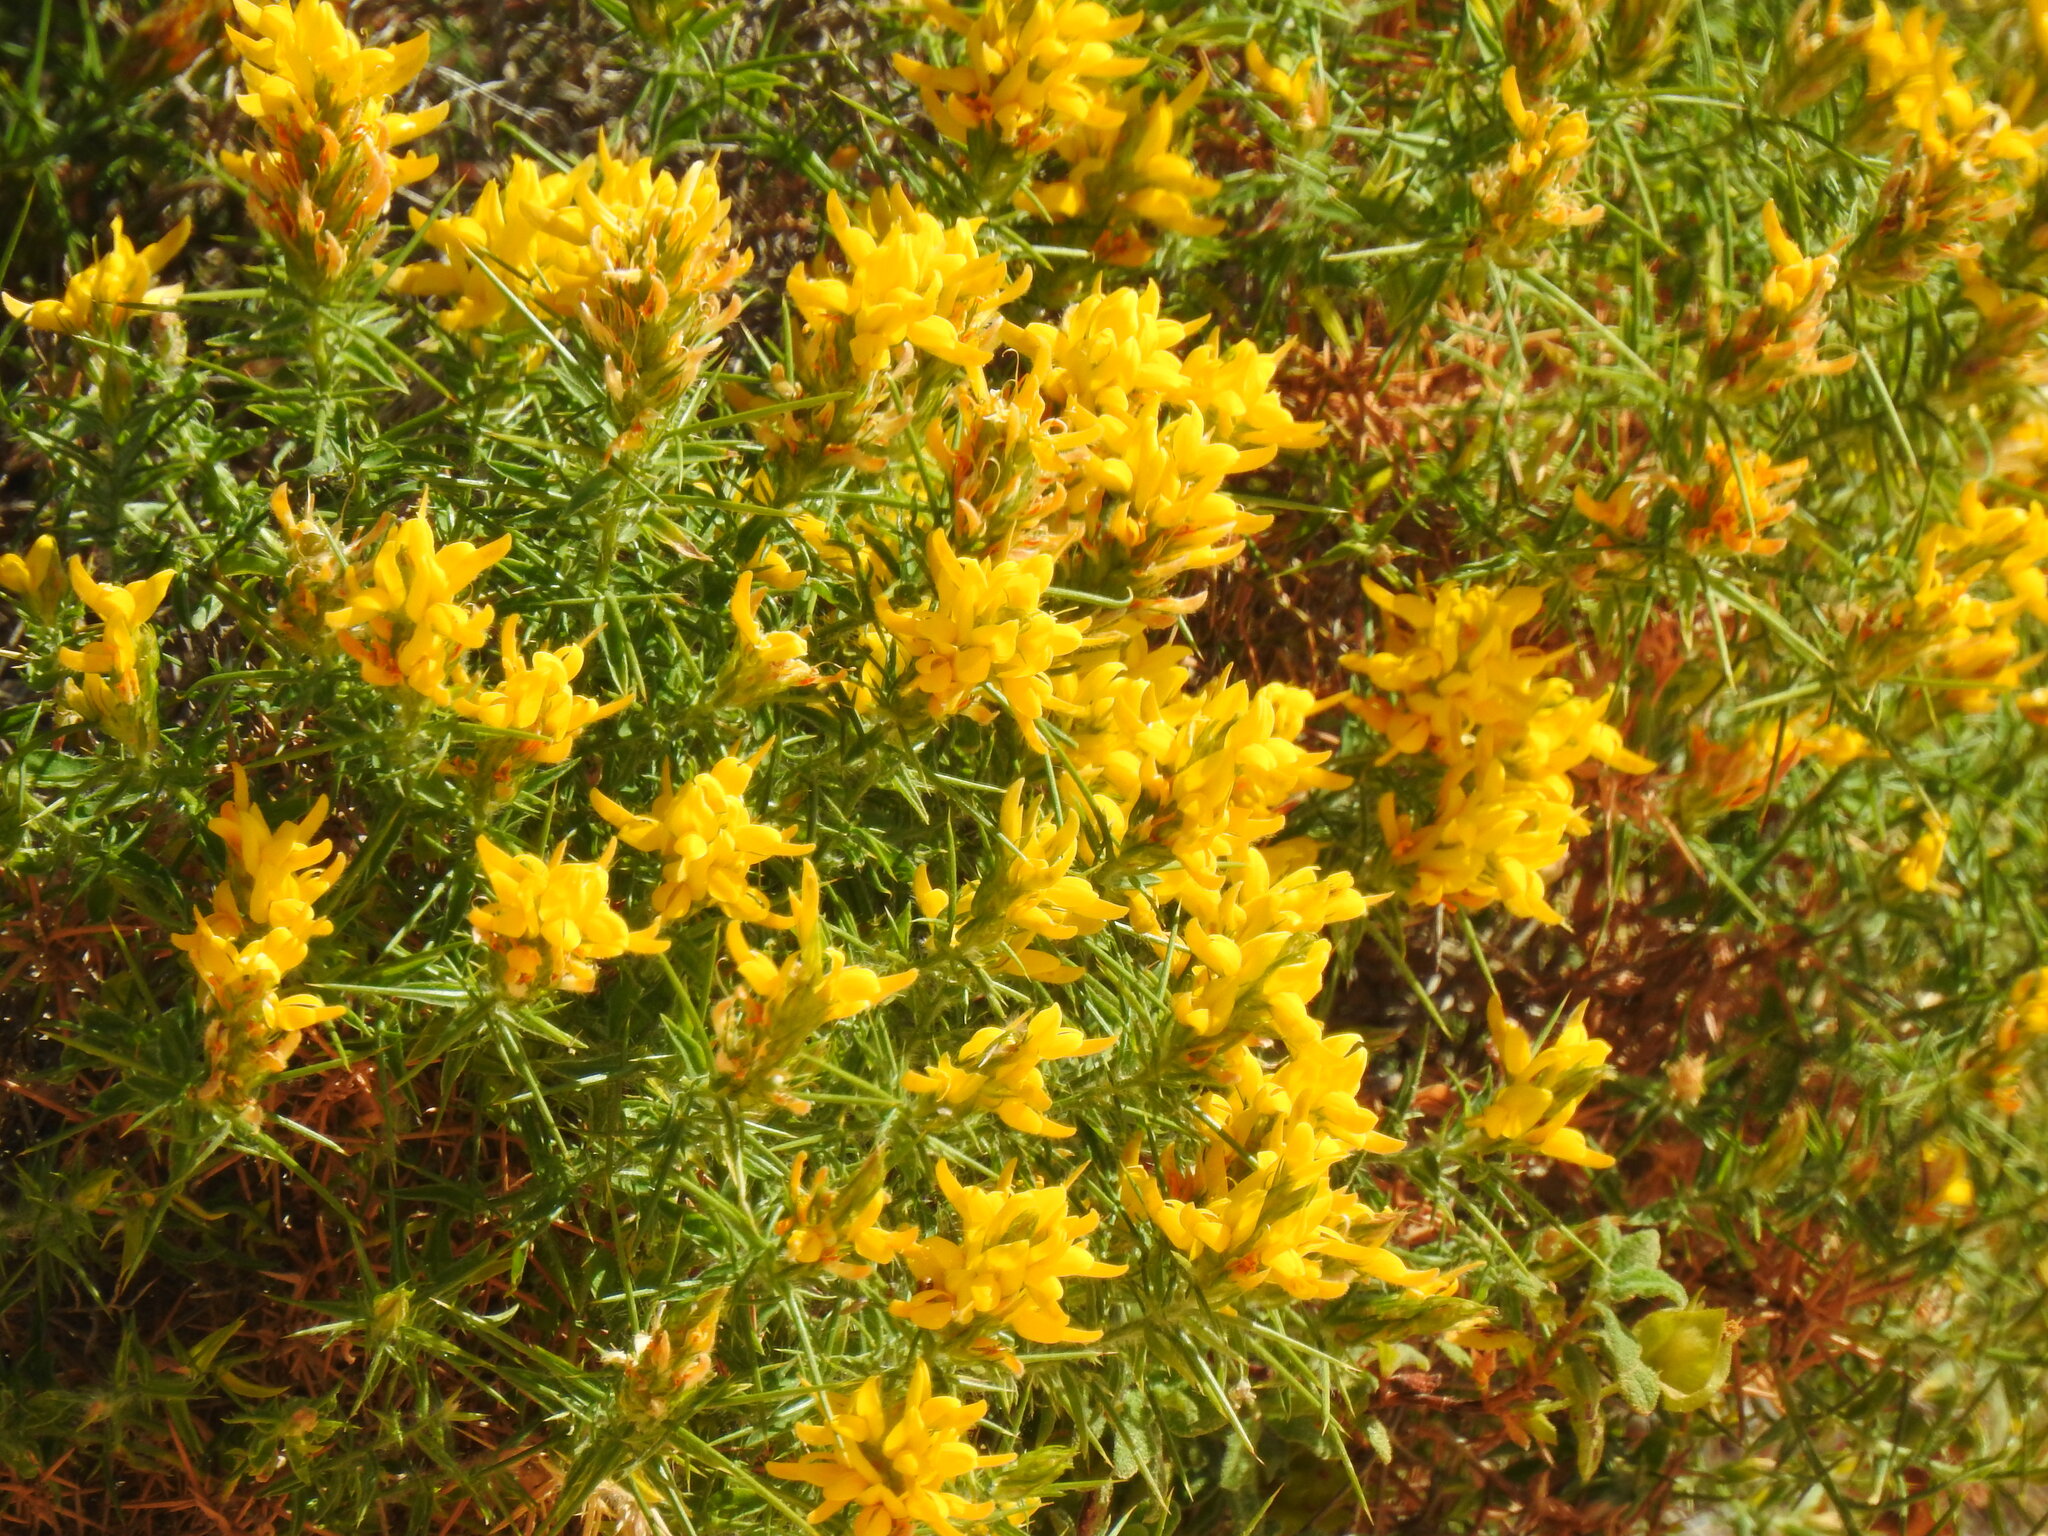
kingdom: Plantae
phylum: Tracheophyta
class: Magnoliopsida
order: Fabales
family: Fabaceae
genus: Genista
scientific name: Genista hirsuta
